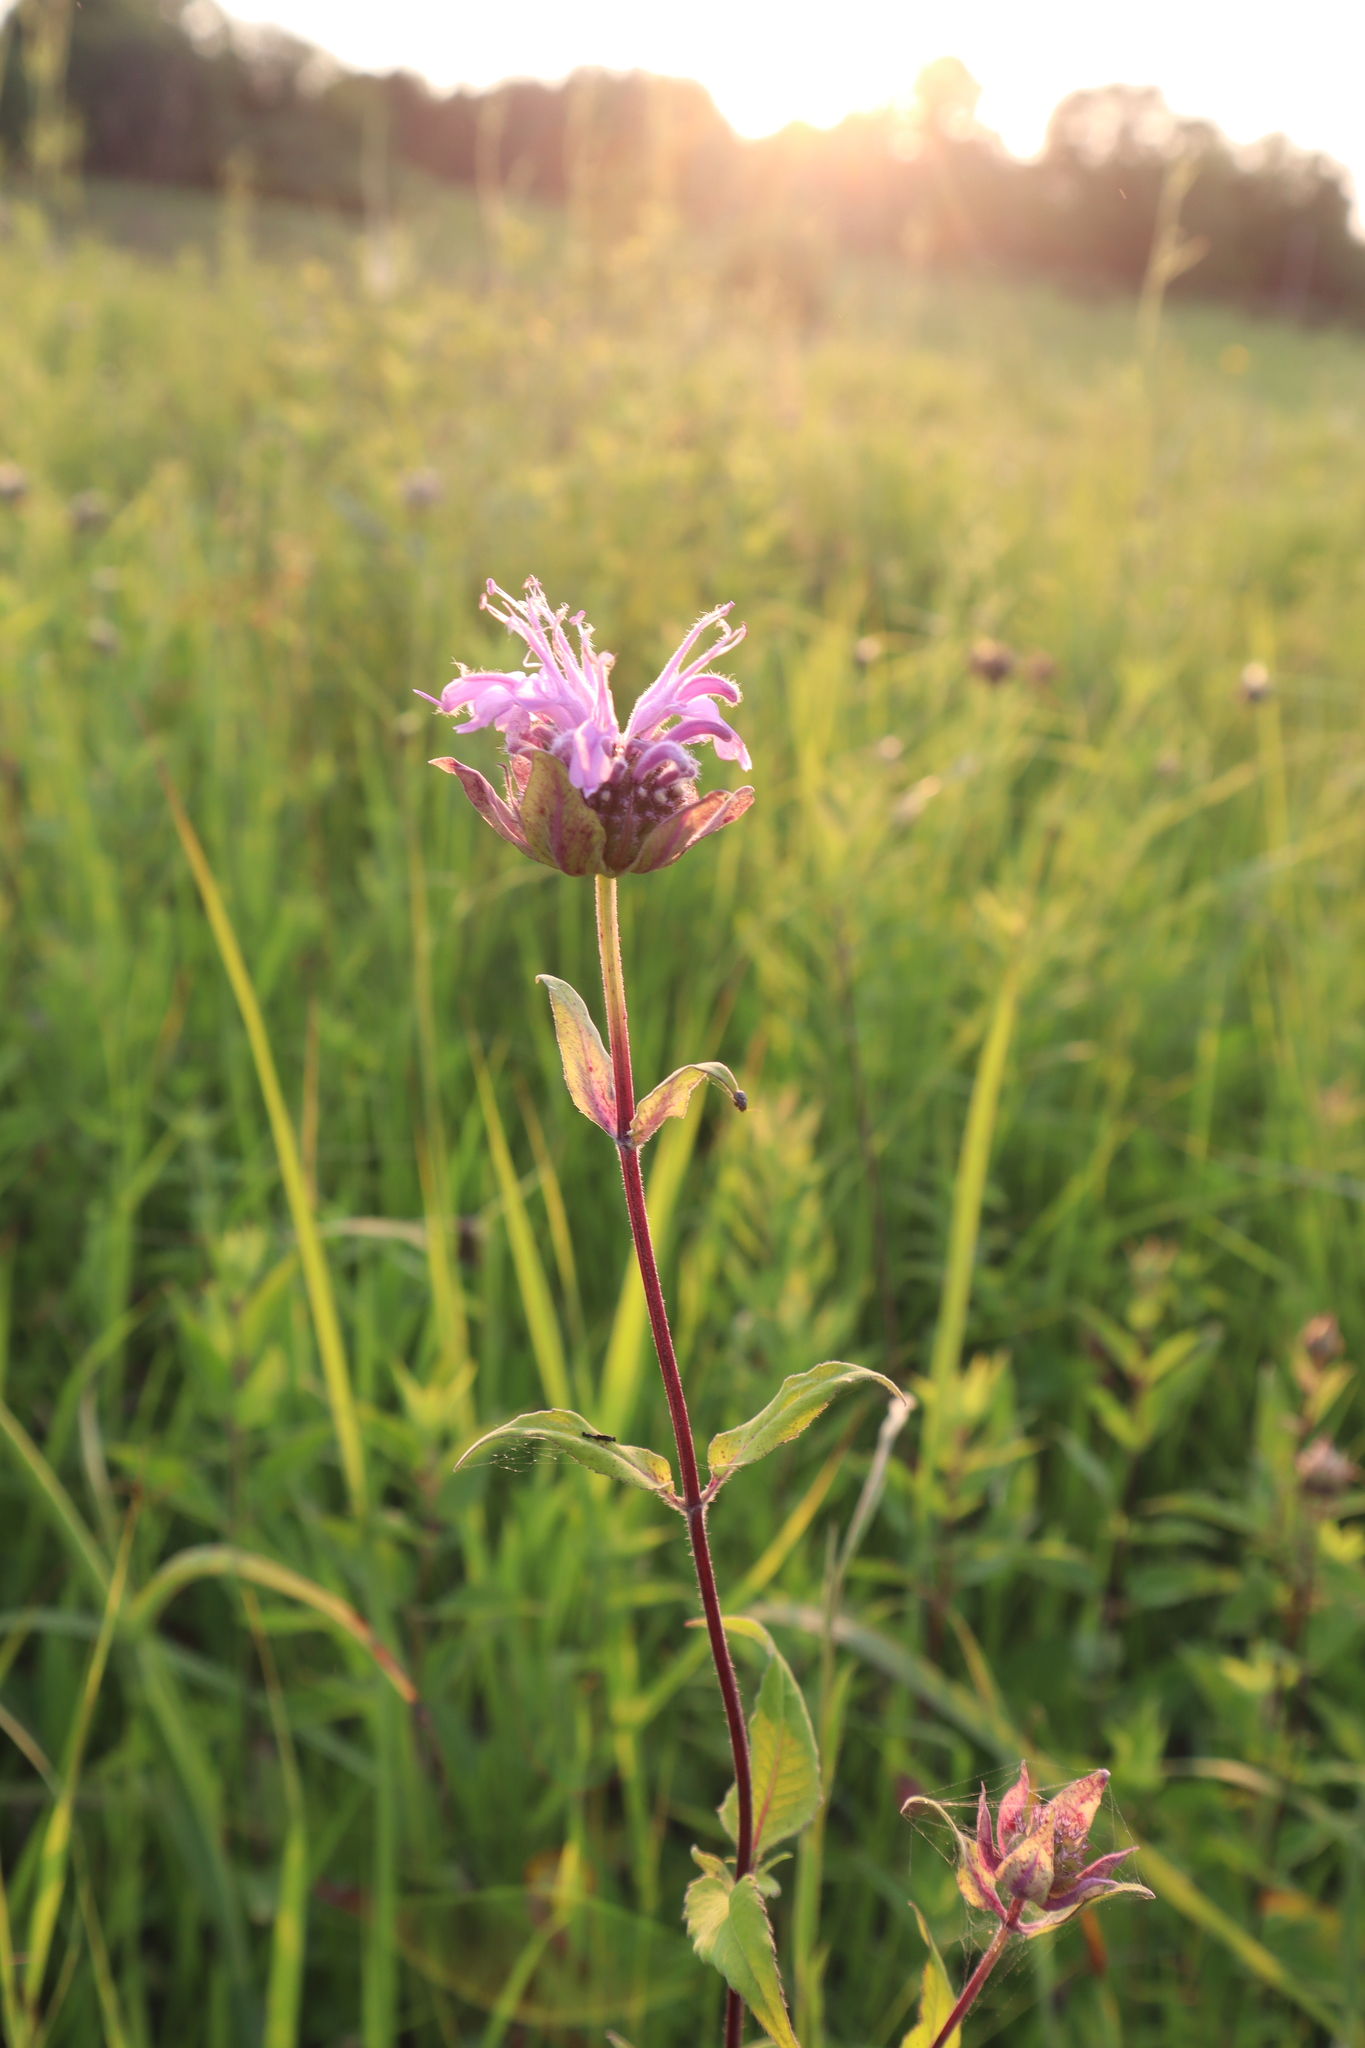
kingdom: Plantae
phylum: Tracheophyta
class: Magnoliopsida
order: Lamiales
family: Lamiaceae
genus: Monarda
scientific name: Monarda fistulosa
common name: Purple beebalm
